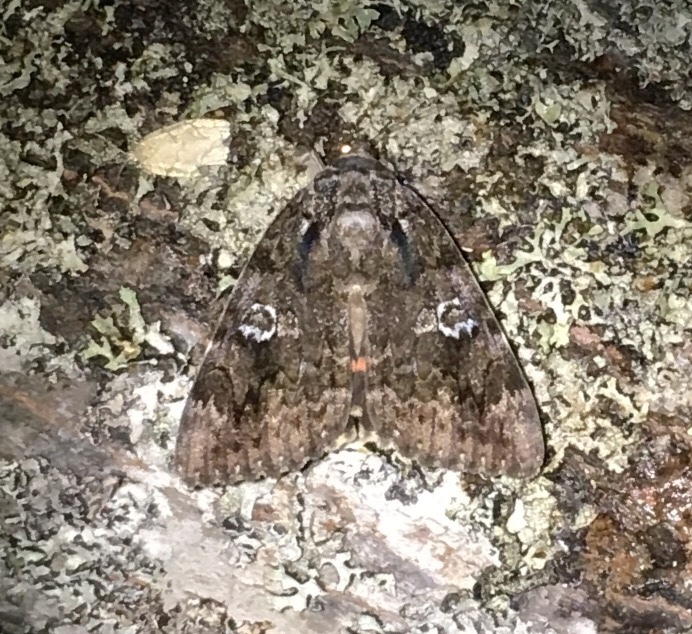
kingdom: Animalia
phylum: Arthropoda
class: Insecta
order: Lepidoptera
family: Erebidae
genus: Catocala
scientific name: Catocala ilia
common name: Ilia underwing
